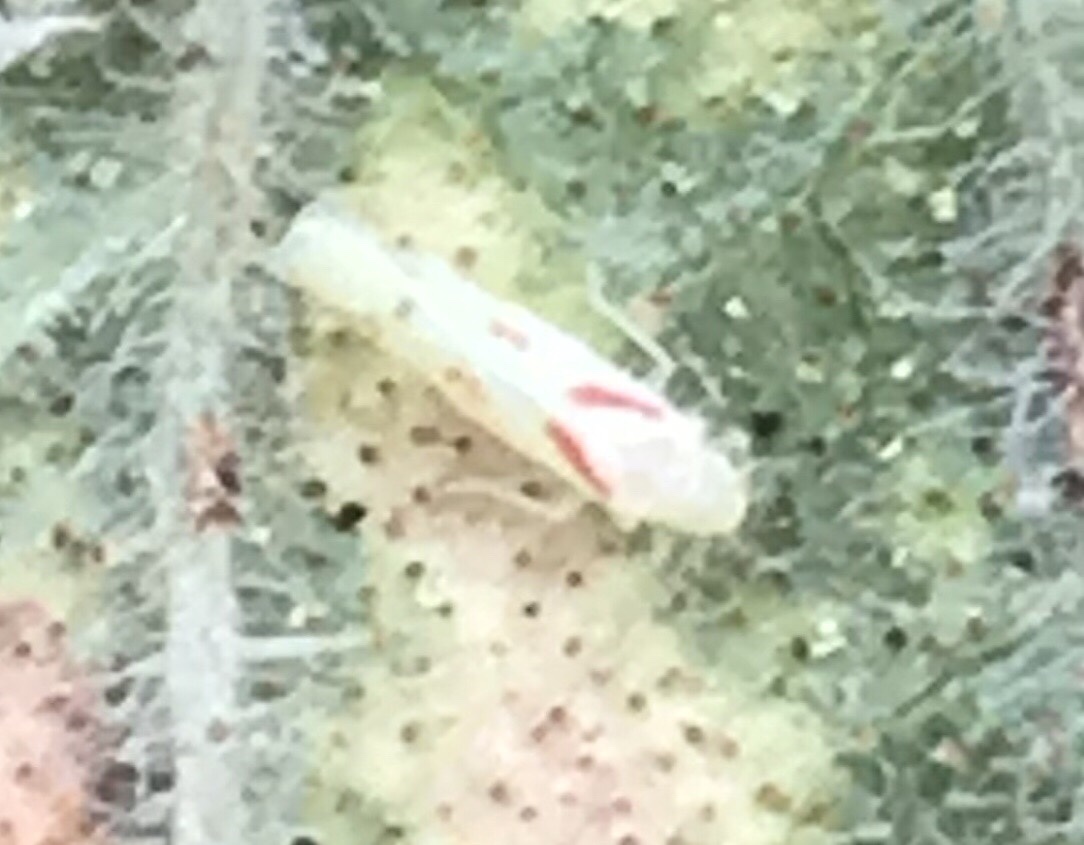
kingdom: Animalia
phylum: Arthropoda
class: Insecta
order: Hemiptera
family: Cicadellidae
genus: Dikrella
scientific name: Dikrella californica
